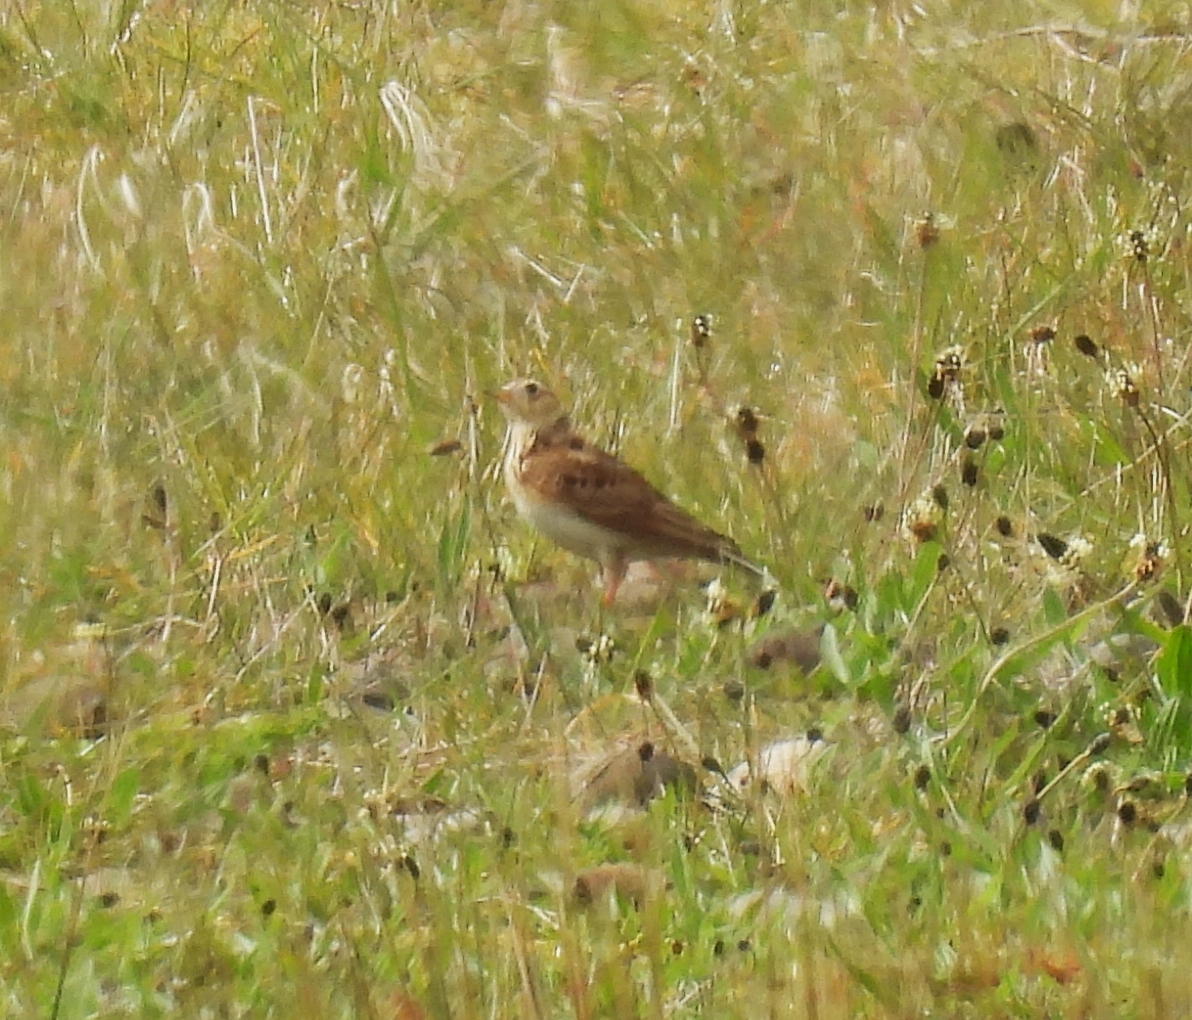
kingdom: Animalia
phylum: Chordata
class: Aves
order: Passeriformes
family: Alaudidae
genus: Alauda
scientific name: Alauda arvensis
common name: Eurasian skylark
